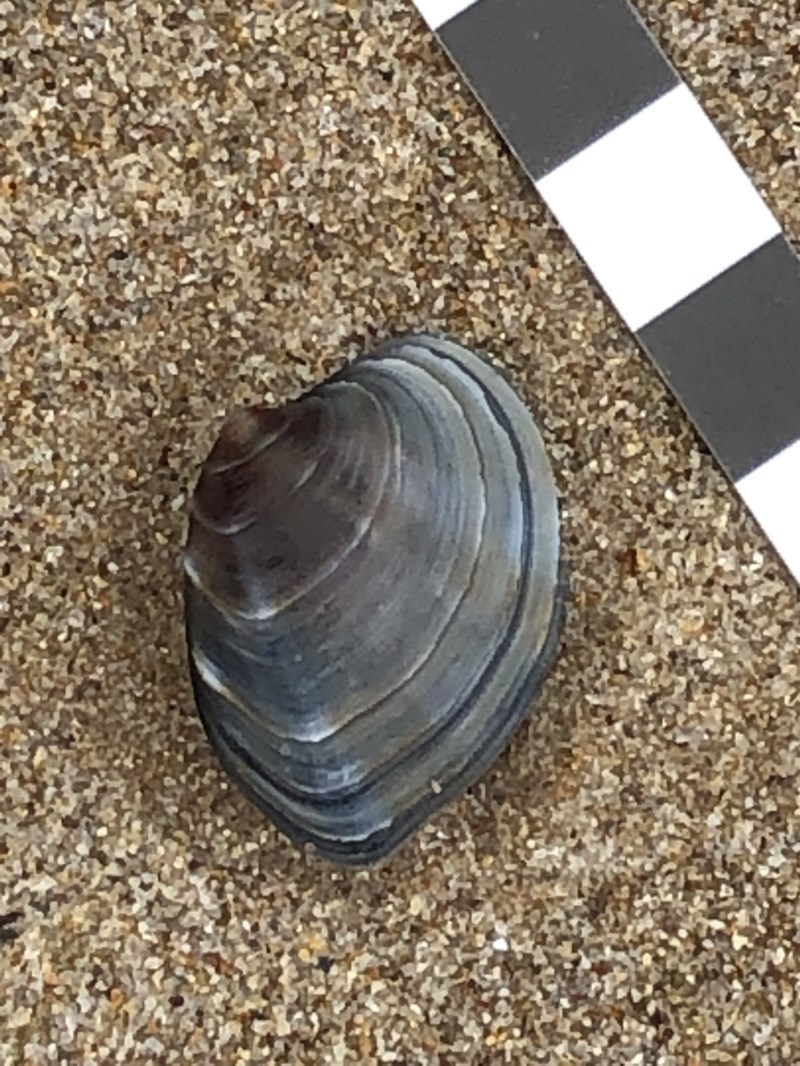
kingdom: Animalia
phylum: Mollusca
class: Bivalvia
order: Venerida
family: Veneridae
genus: Bassina
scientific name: Bassina jacksonii
